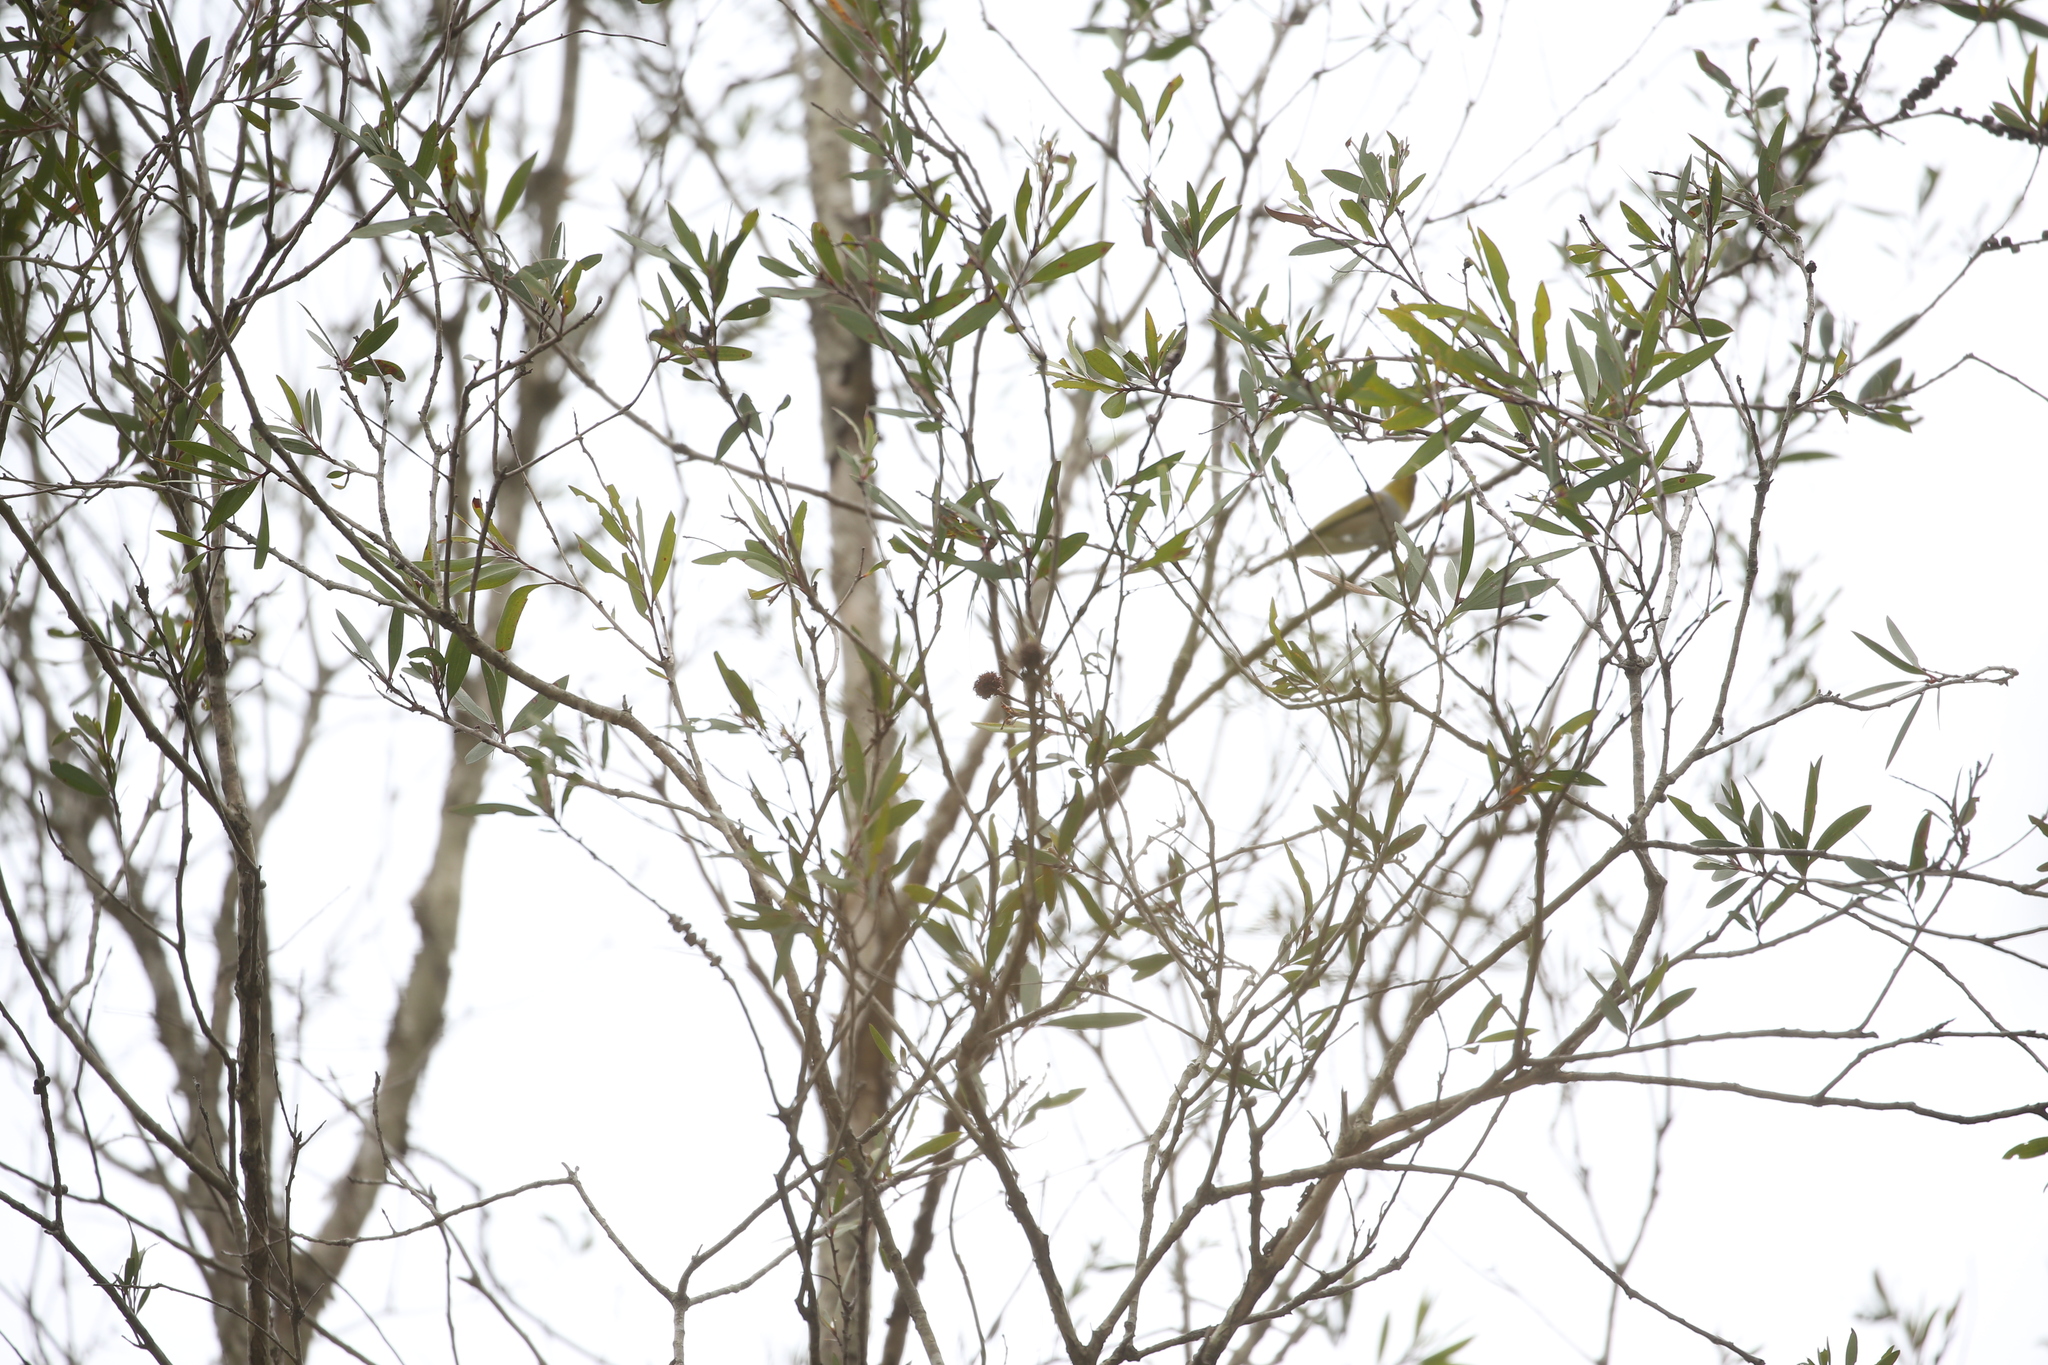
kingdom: Animalia
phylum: Chordata
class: Aves
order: Passeriformes
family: Zosteropidae
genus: Zosterops
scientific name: Zosterops lateralis
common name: Silvereye
